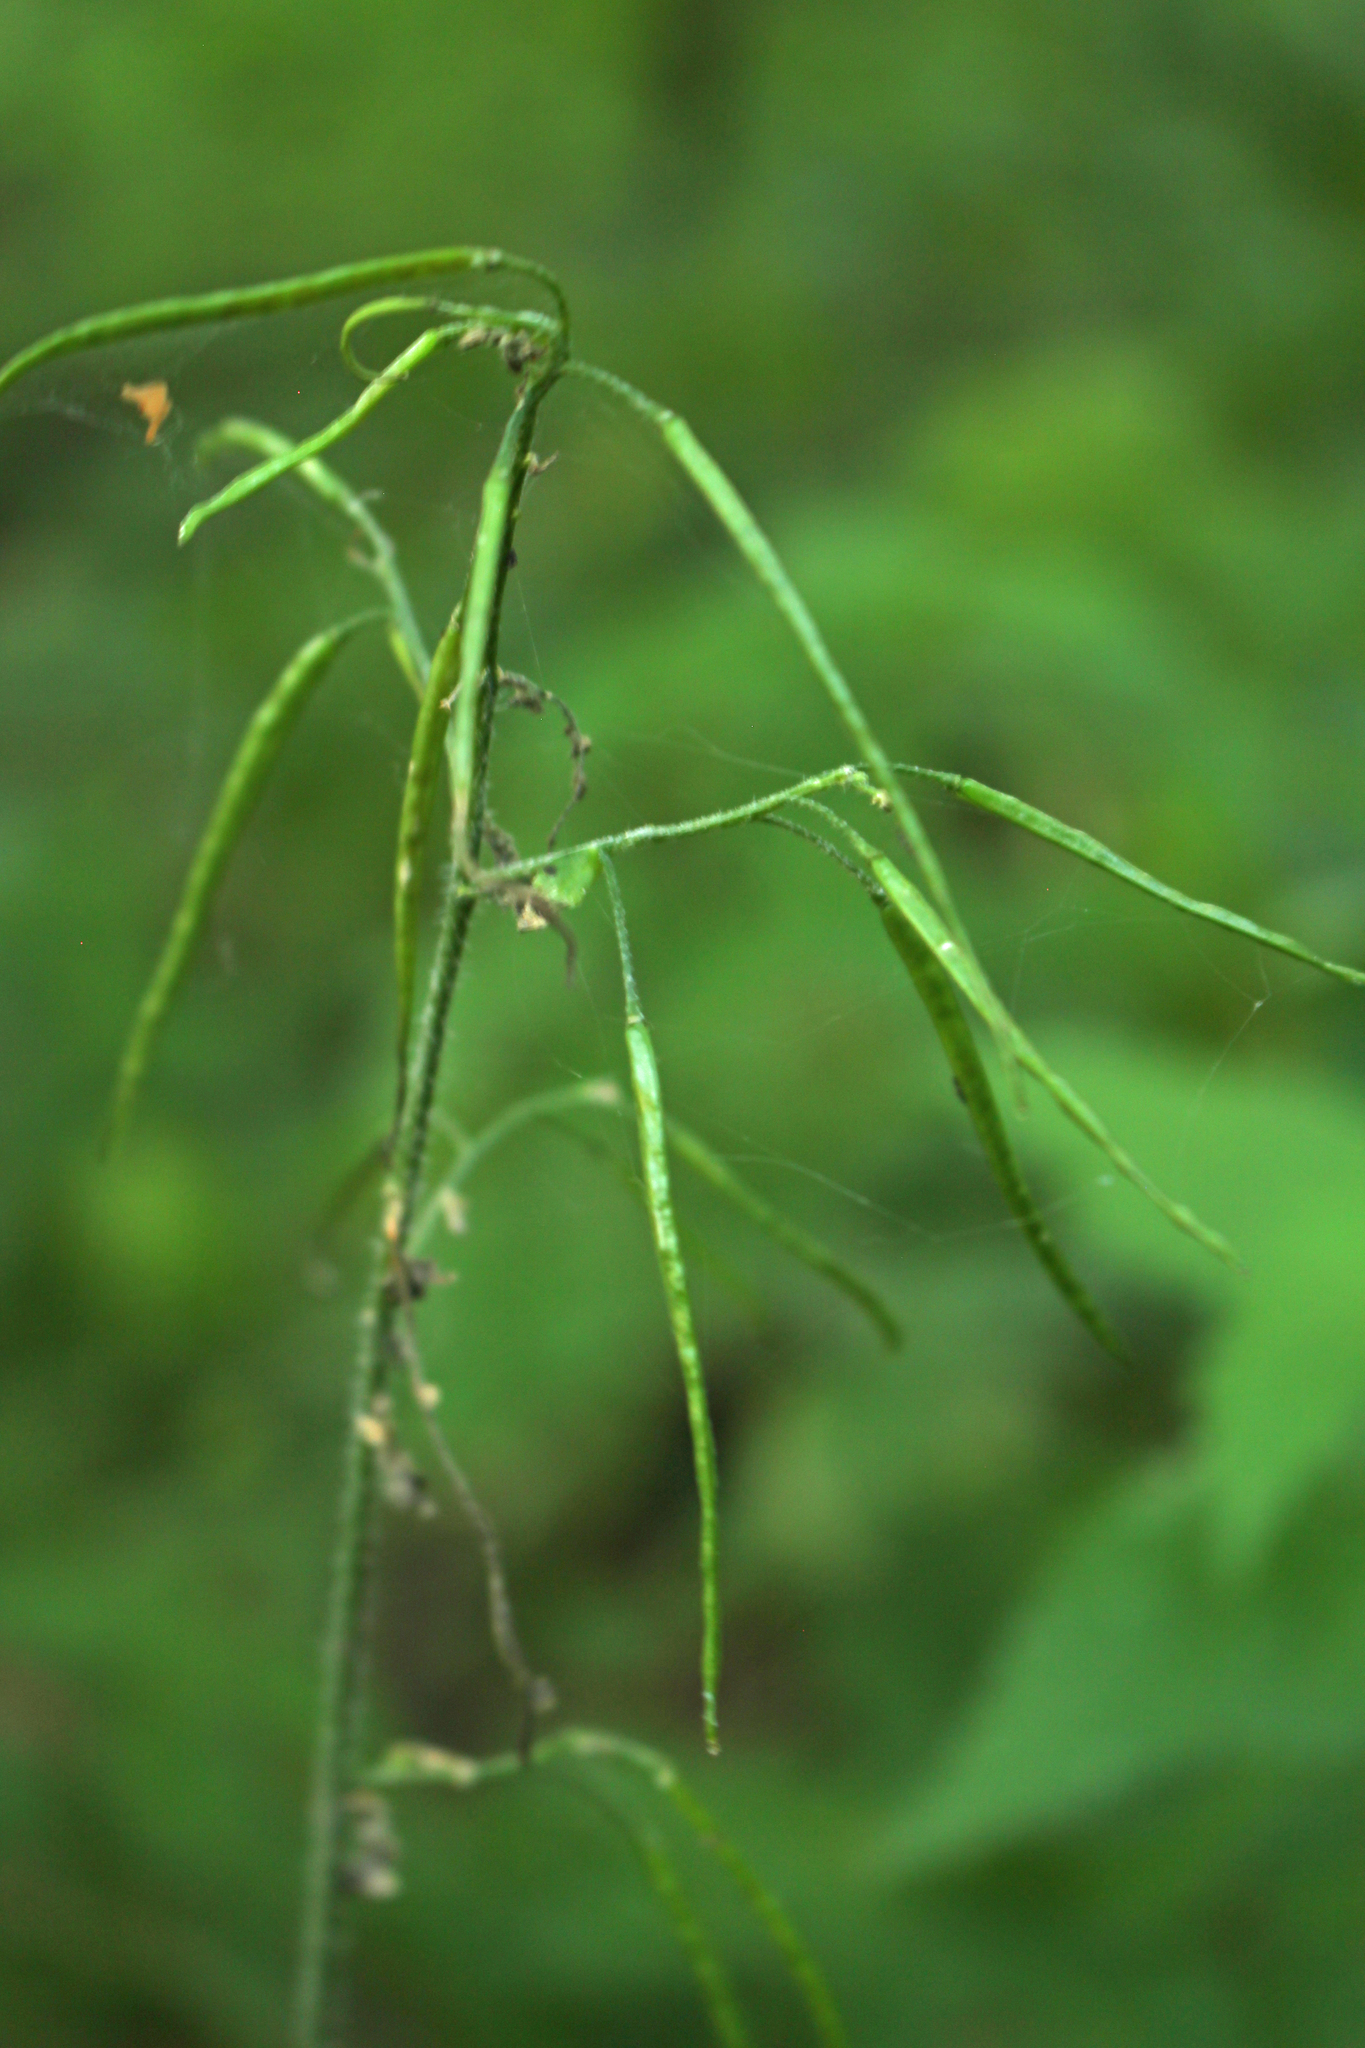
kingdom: Plantae
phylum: Tracheophyta
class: Magnoliopsida
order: Brassicales
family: Brassicaceae
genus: Catolobus
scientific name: Catolobus pendulus
